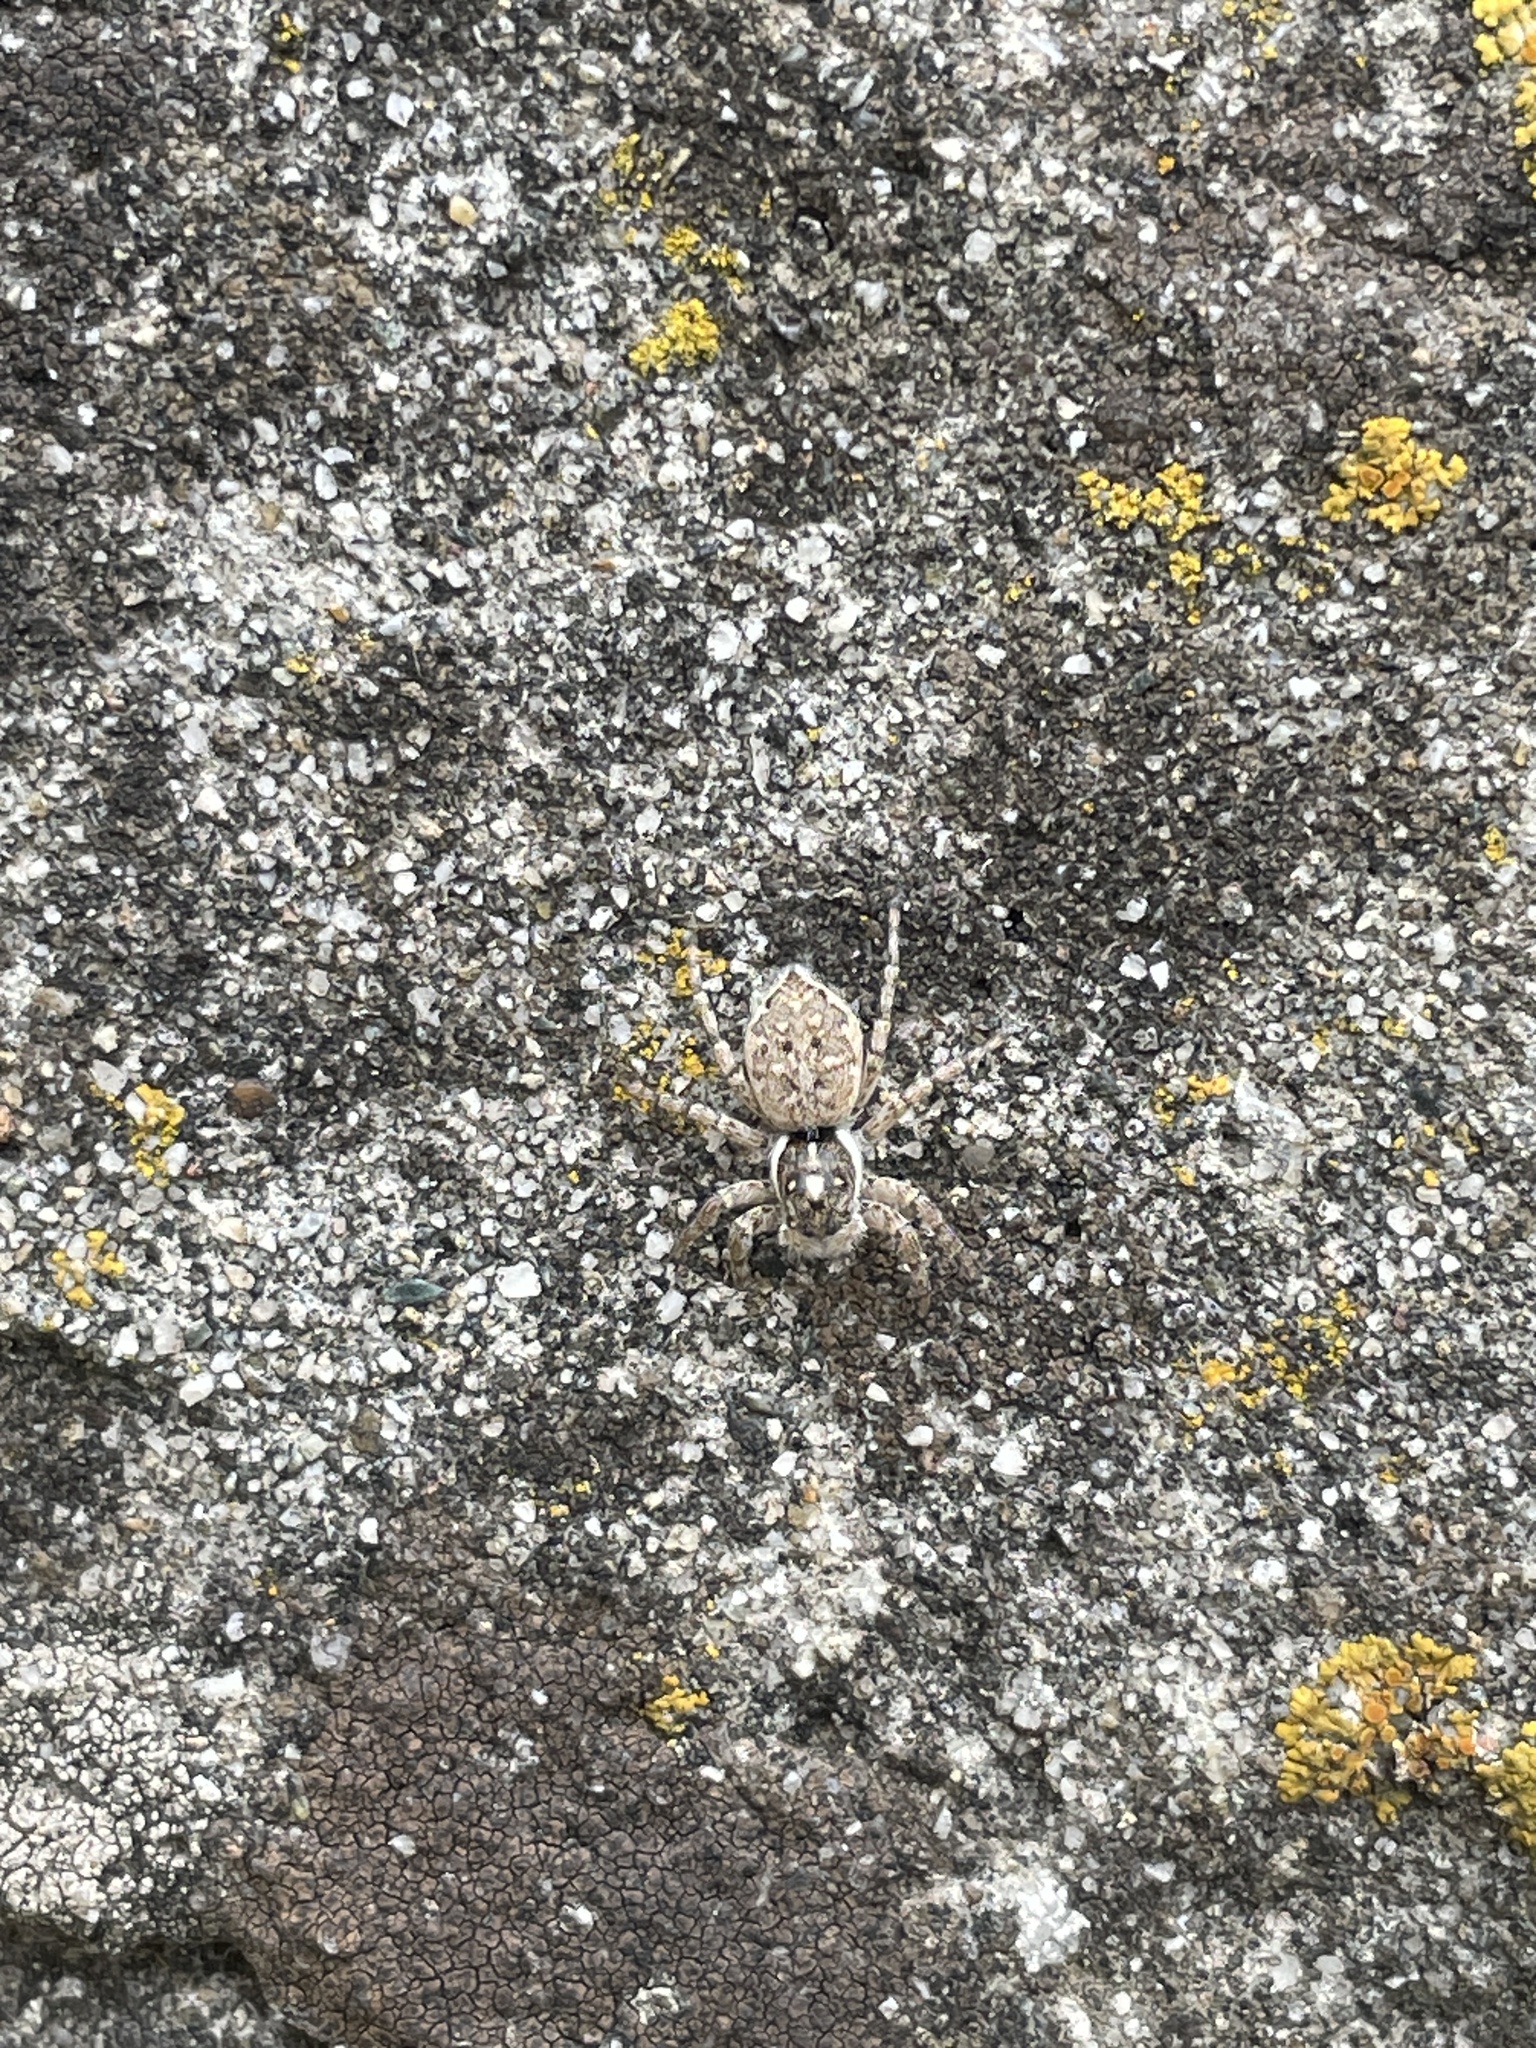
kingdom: Animalia
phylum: Arthropoda
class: Arachnida
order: Araneae
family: Salticidae
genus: Menemerus
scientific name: Menemerus semilimbatus
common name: Jumping spider
